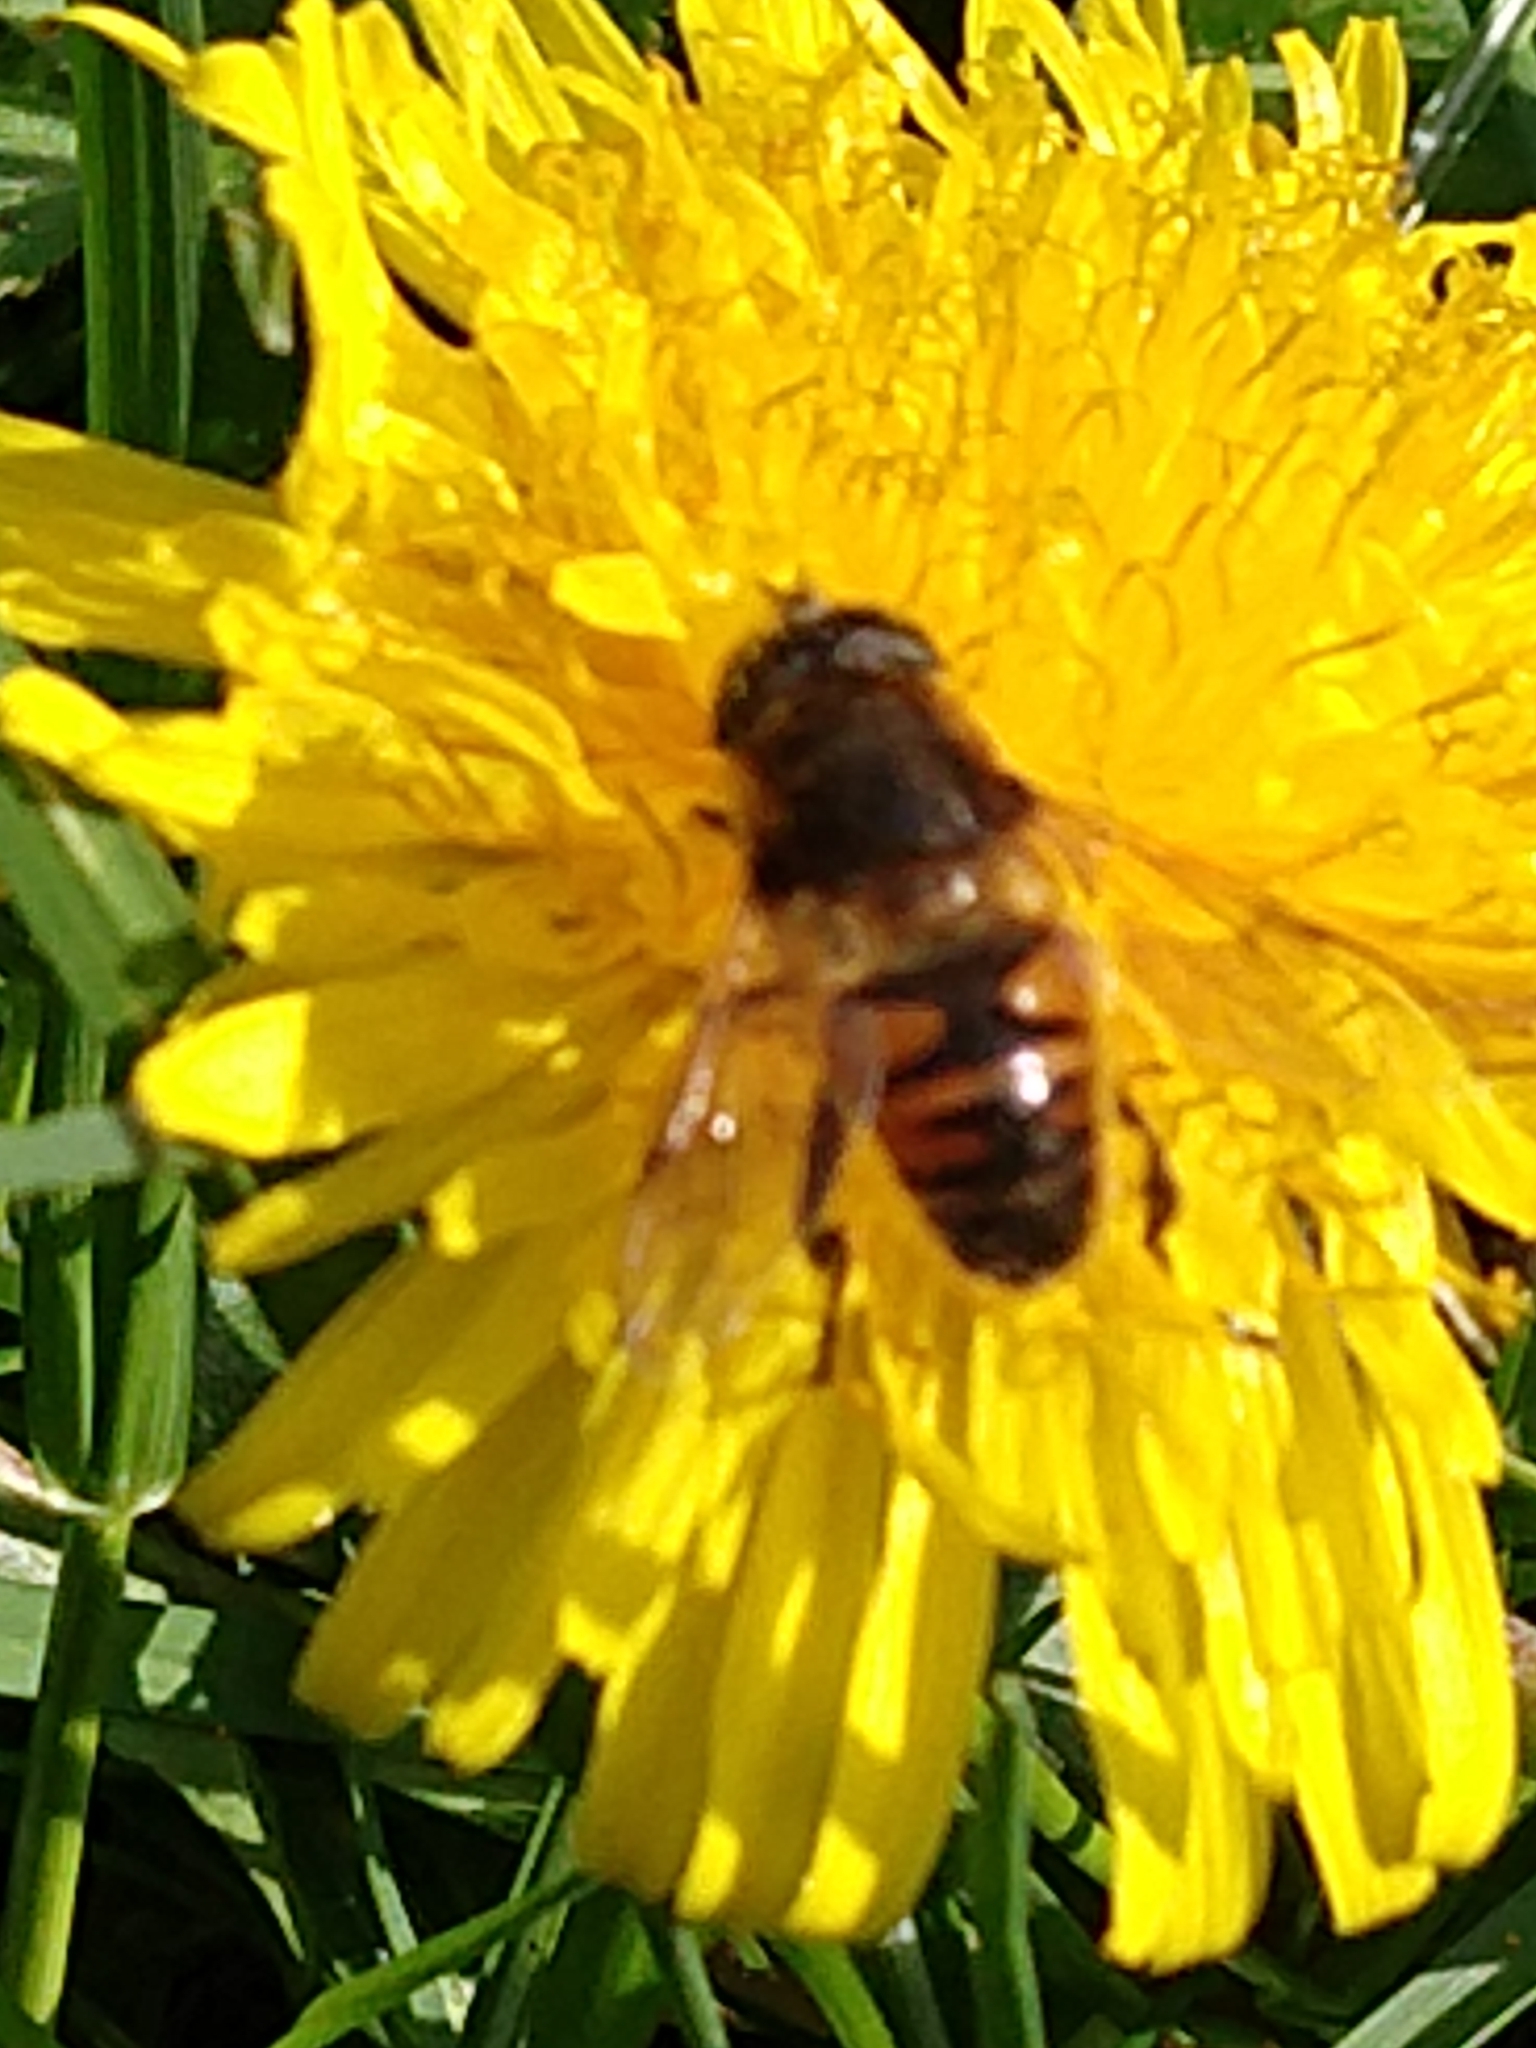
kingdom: Animalia
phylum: Arthropoda
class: Insecta
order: Diptera
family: Syrphidae
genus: Eristalis
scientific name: Eristalis tenax
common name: Drone fly
